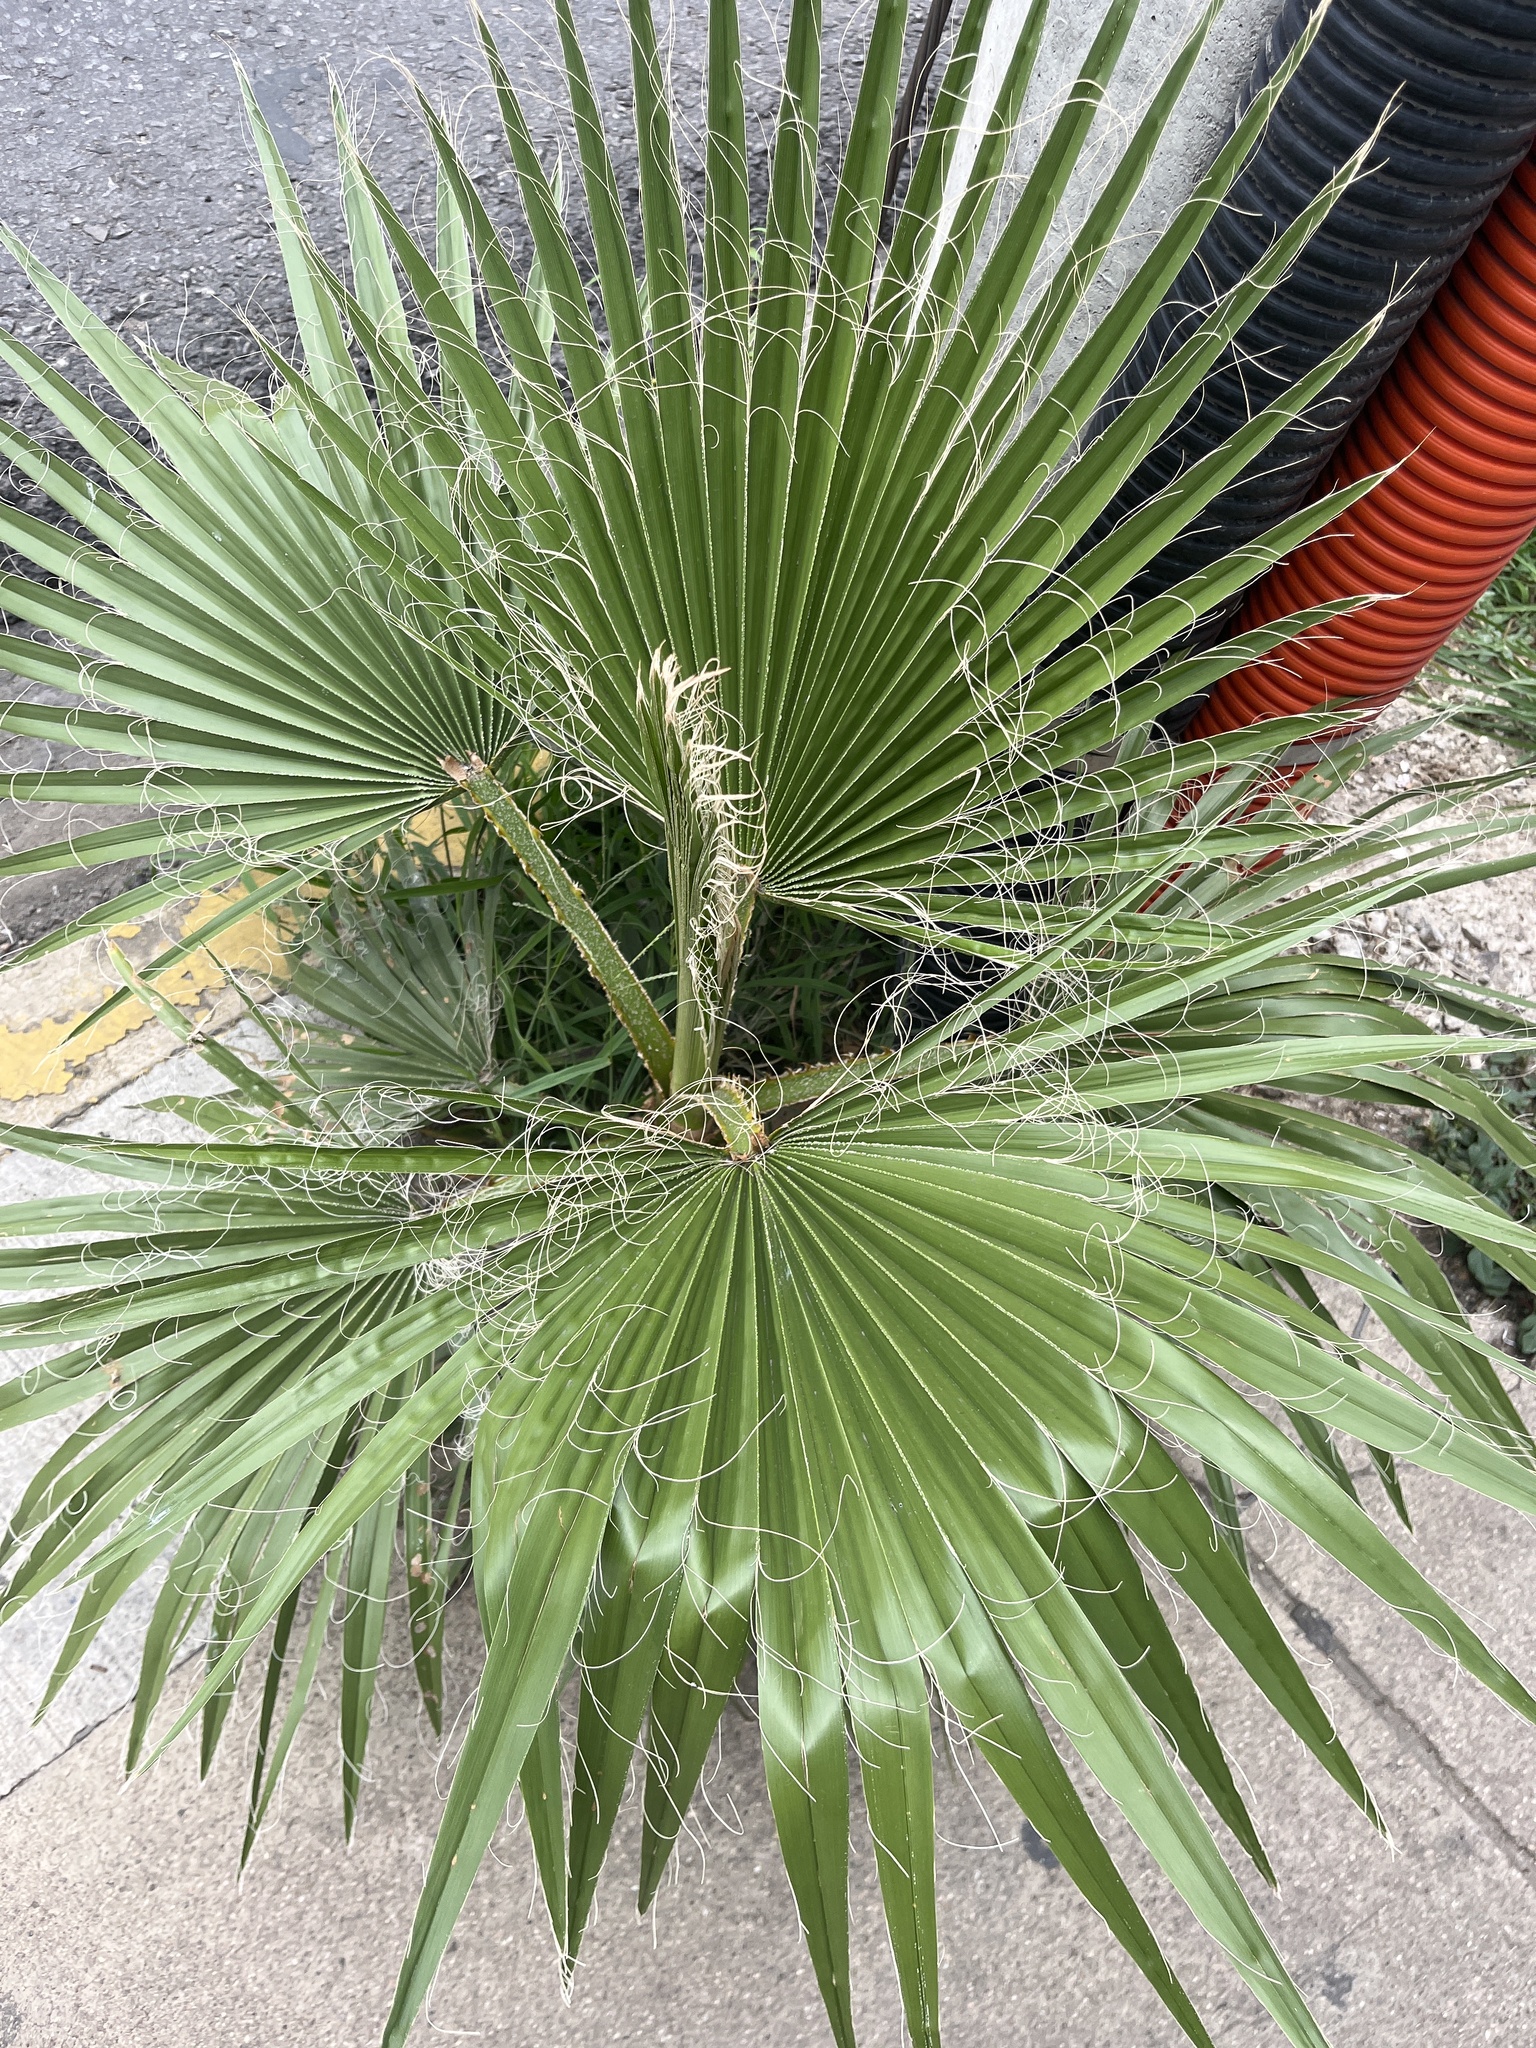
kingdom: Plantae
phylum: Tracheophyta
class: Liliopsida
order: Arecales
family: Arecaceae
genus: Washingtonia
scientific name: Washingtonia robusta
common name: Mexican fan palm
